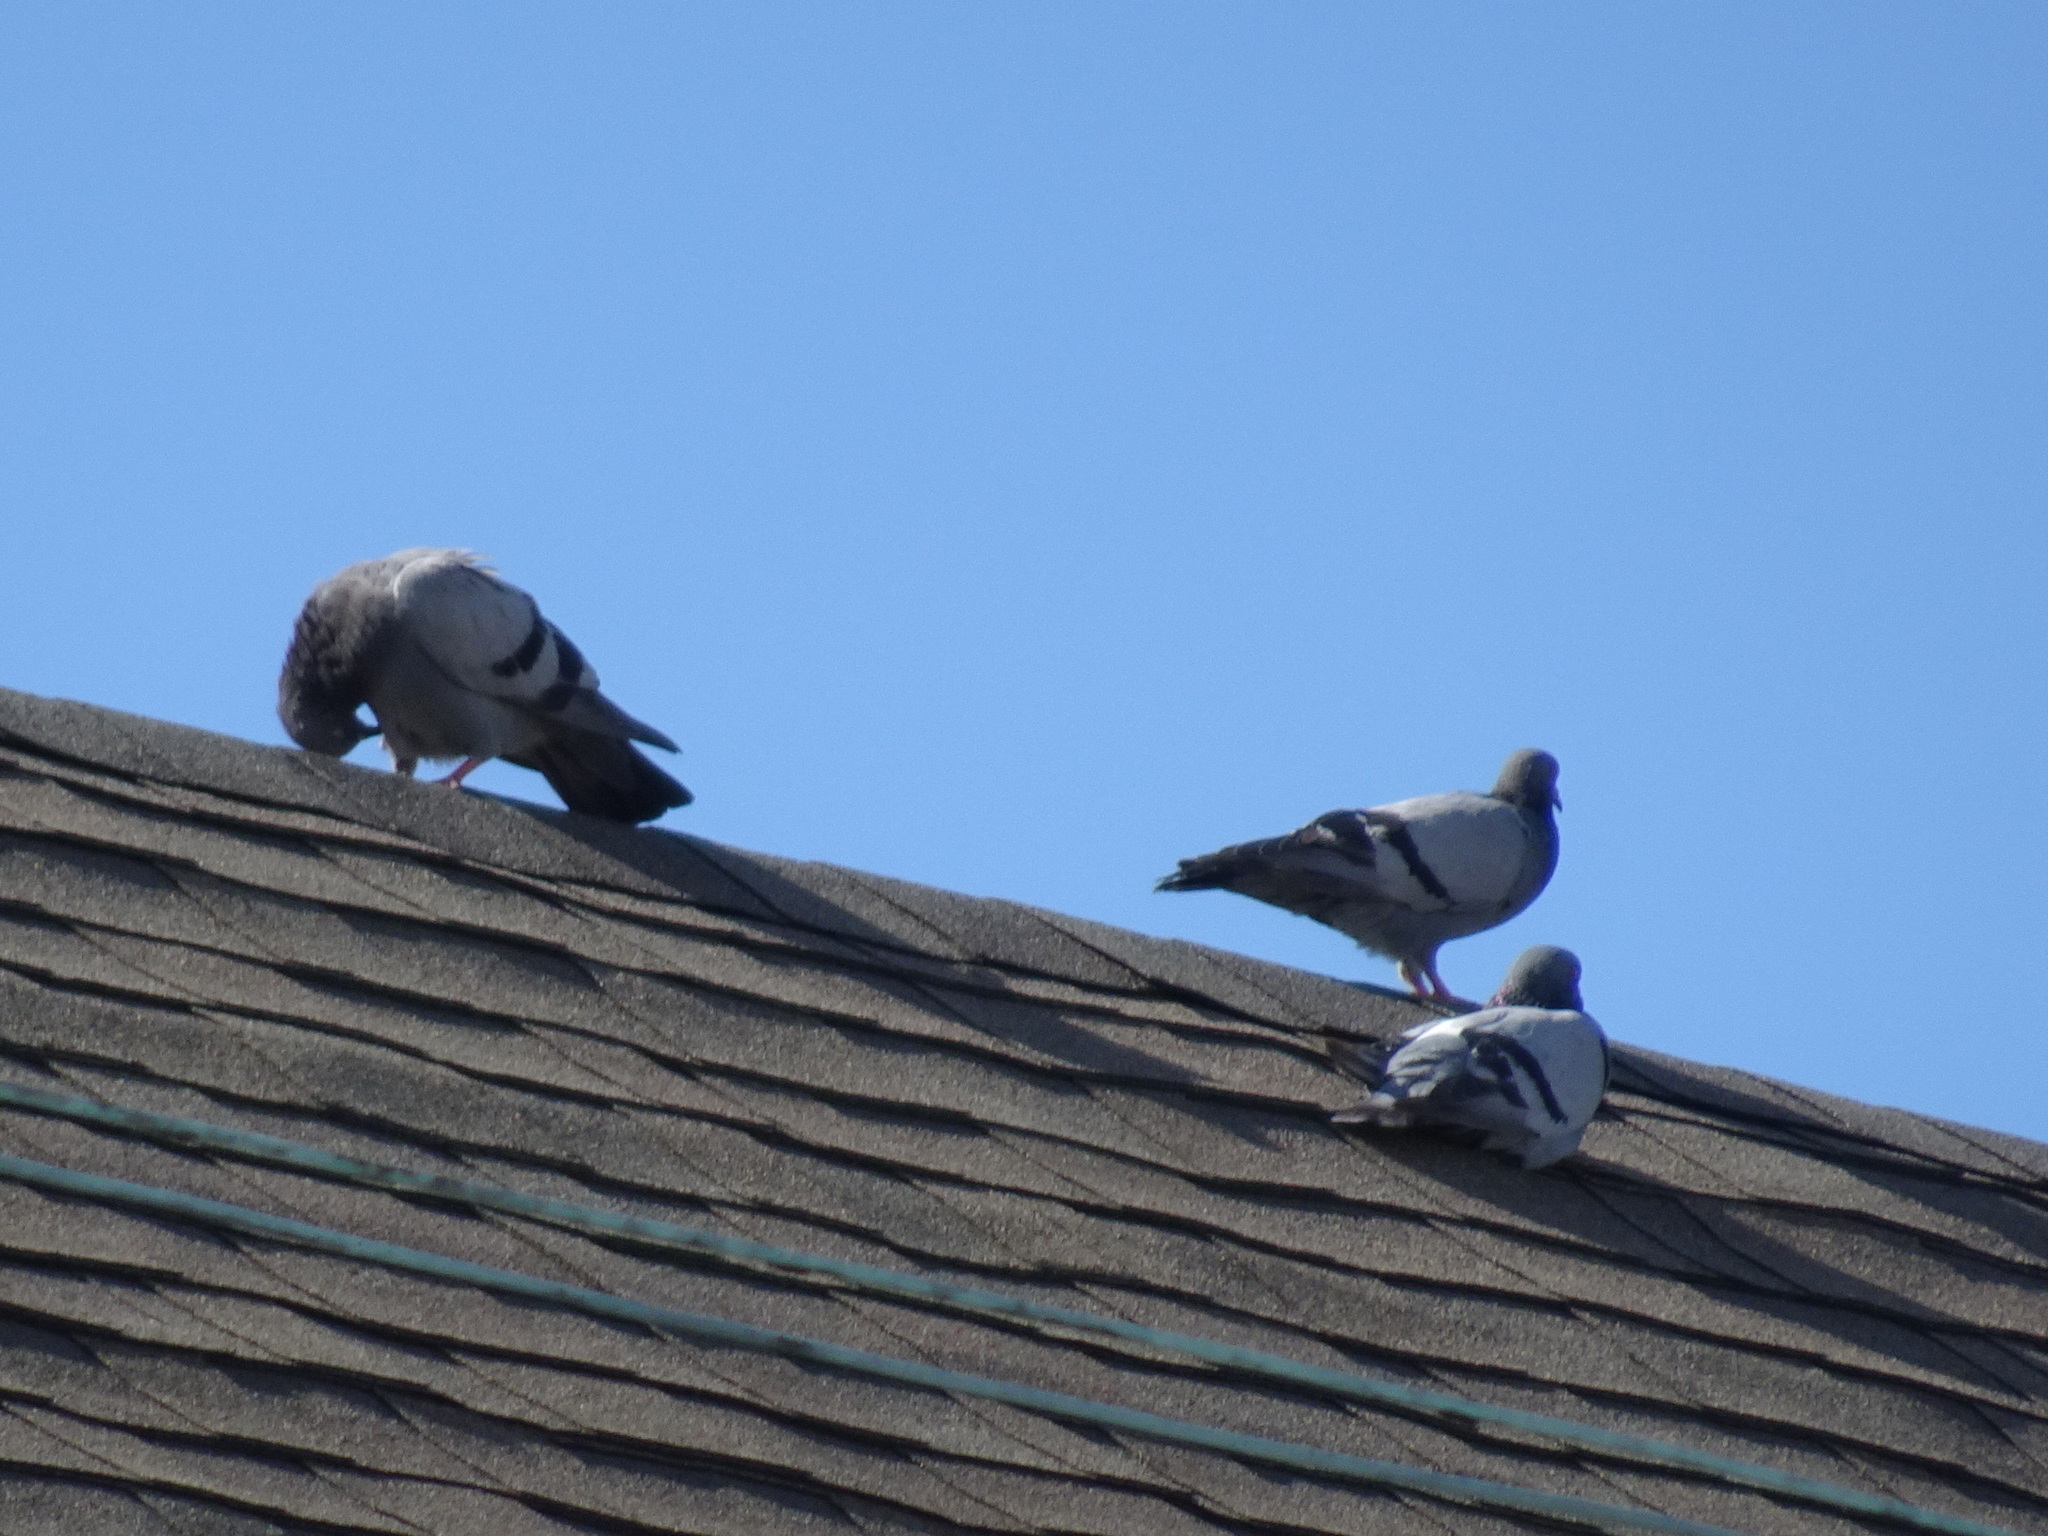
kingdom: Animalia
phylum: Chordata
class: Aves
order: Columbiformes
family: Columbidae
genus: Columba
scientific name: Columba livia
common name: Rock pigeon
